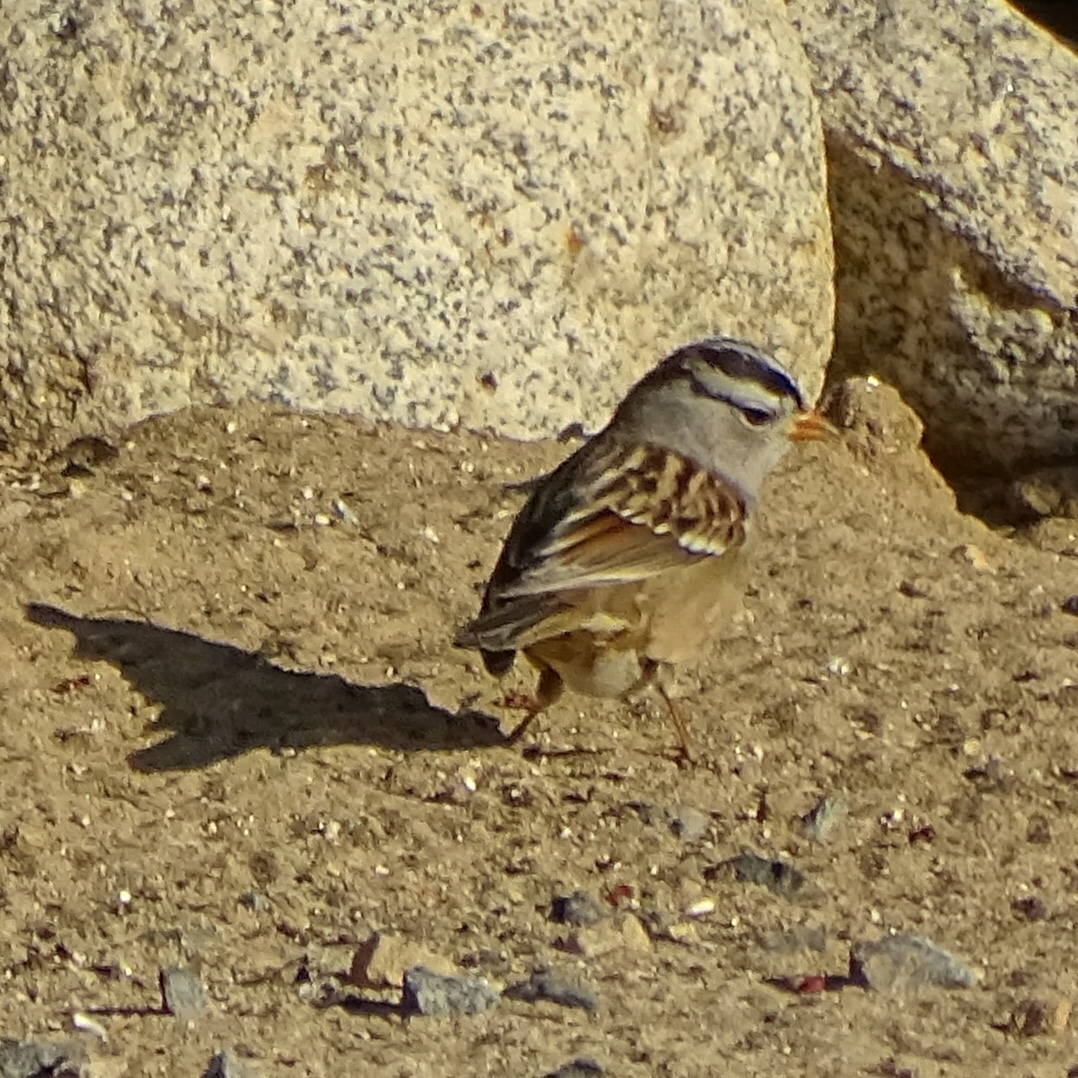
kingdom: Animalia
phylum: Chordata
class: Aves
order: Passeriformes
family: Passerellidae
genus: Zonotrichia
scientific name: Zonotrichia leucophrys
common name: White-crowned sparrow
